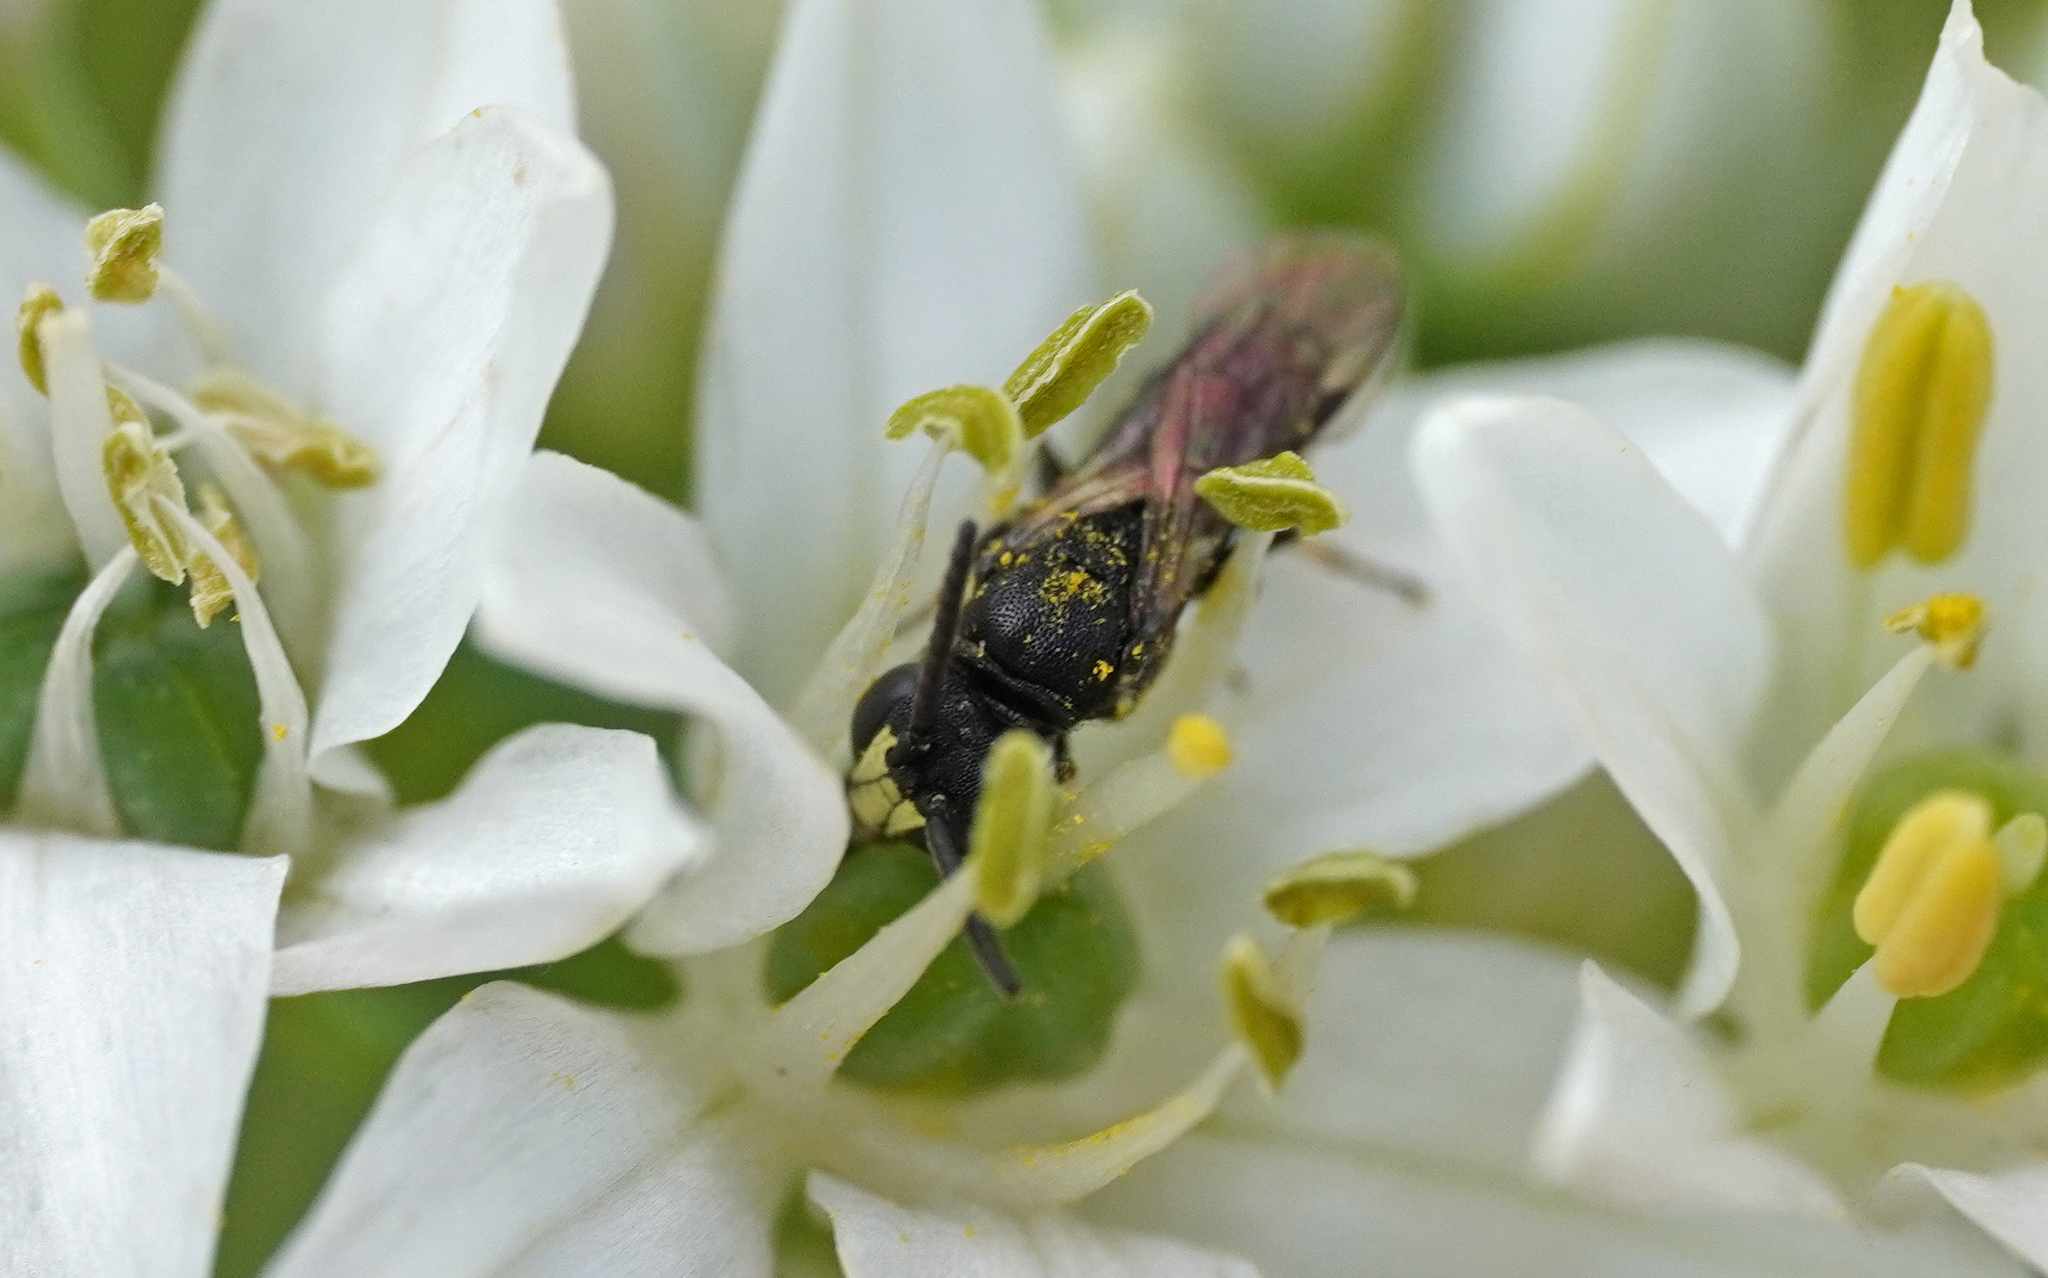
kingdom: Animalia
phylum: Arthropoda
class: Insecta
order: Hymenoptera
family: Colletidae
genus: Hylaeus
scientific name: Hylaeus communis
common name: Common yellow-face bee
